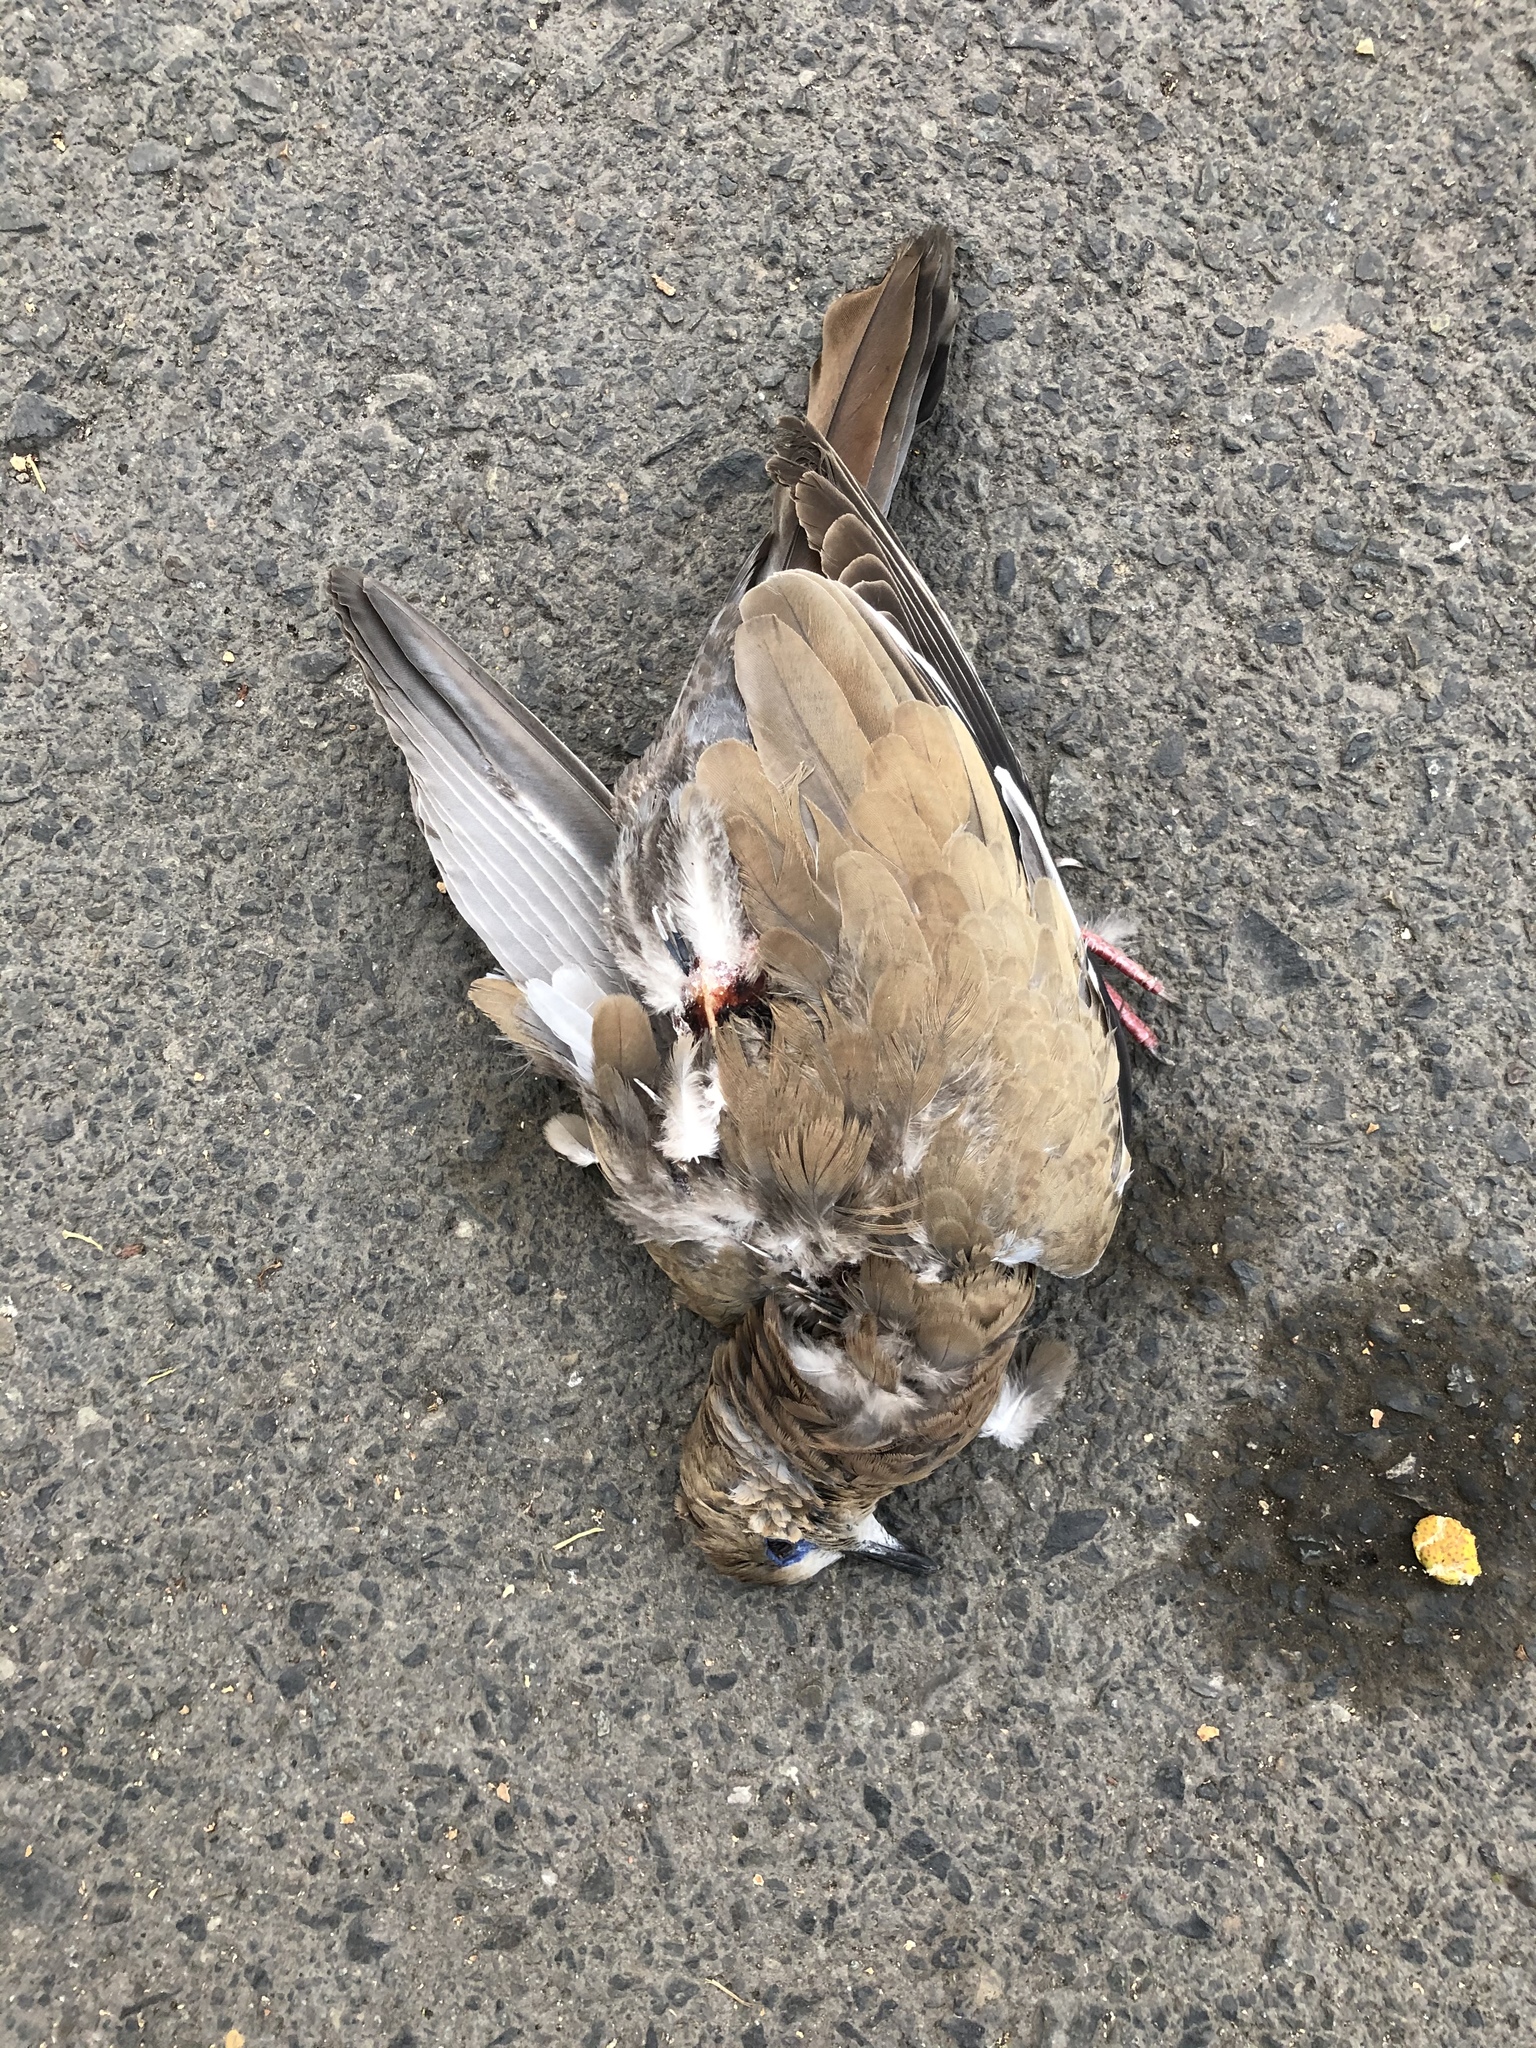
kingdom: Animalia
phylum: Chordata
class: Aves
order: Columbiformes
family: Columbidae
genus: Zenaida
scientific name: Zenaida meloda
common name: West peruvian dove
